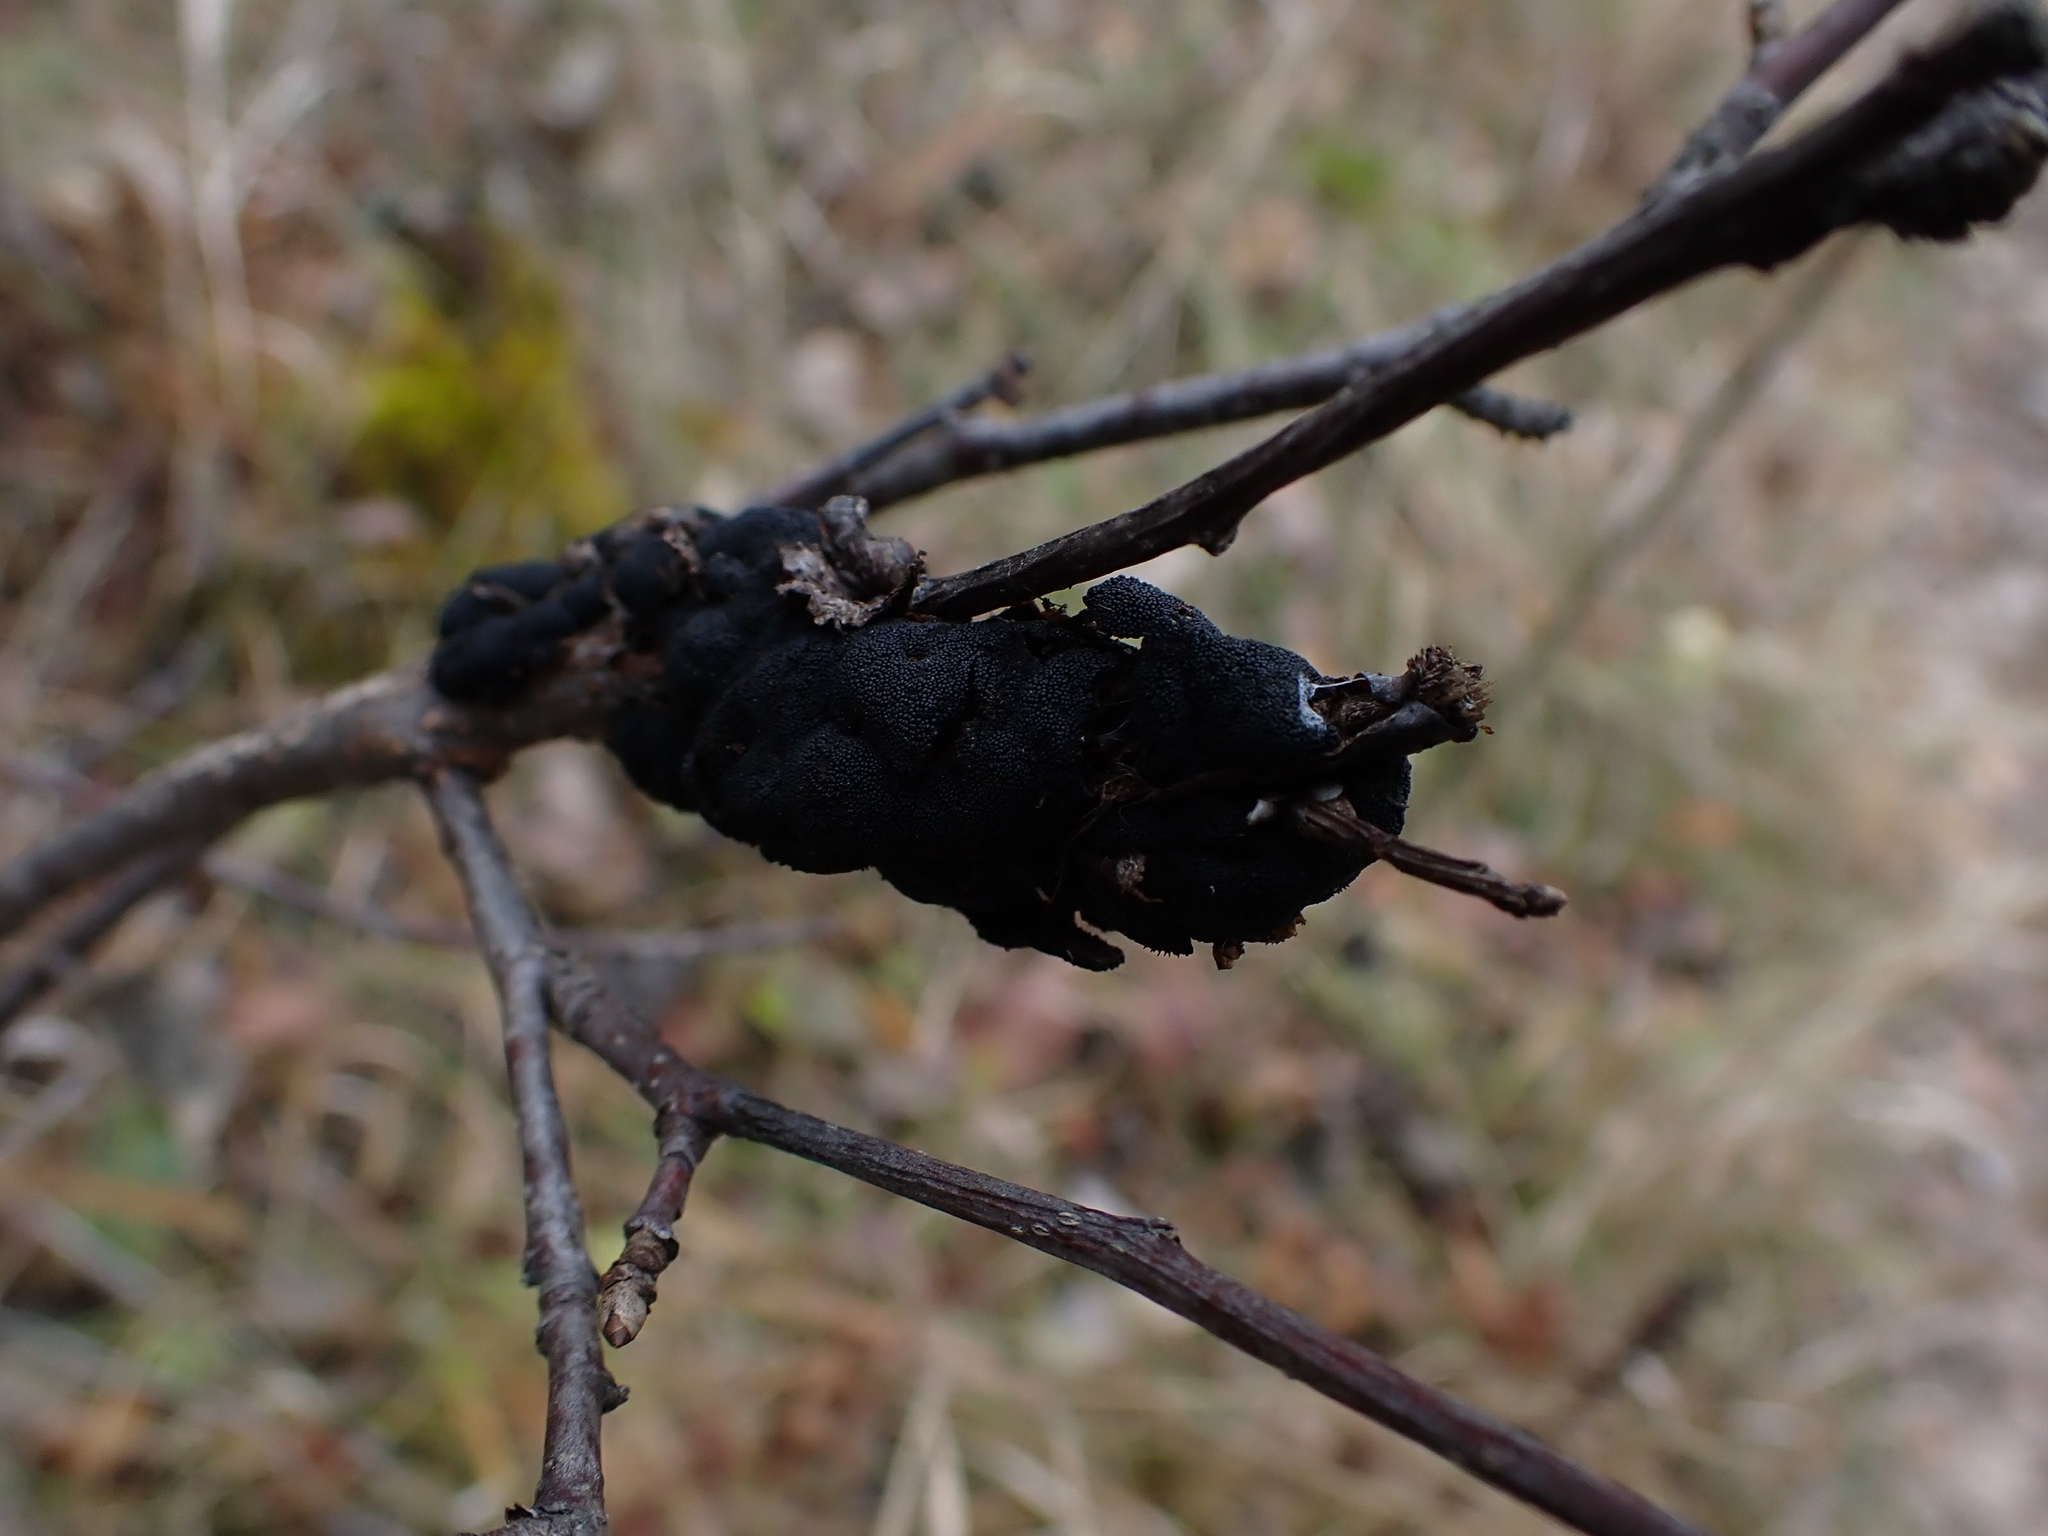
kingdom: Fungi
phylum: Ascomycota
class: Dothideomycetes
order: Venturiales
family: Venturiaceae
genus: Apiosporina
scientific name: Apiosporina morbosa
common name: Black knot
